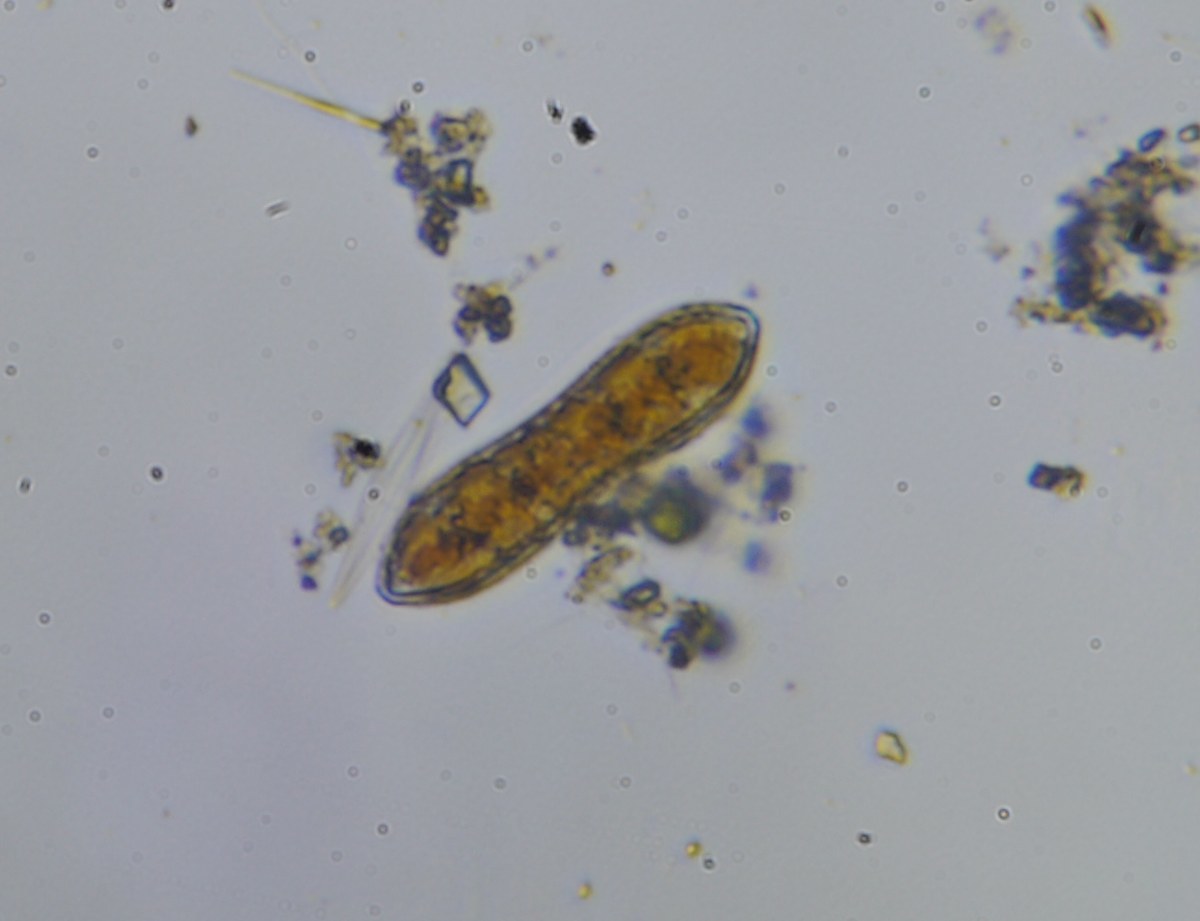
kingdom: Chromista
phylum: Ochrophyta
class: Bacillariophyceae
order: Surirellales
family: Surirellaceae
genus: Surirella
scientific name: Surirella librile
